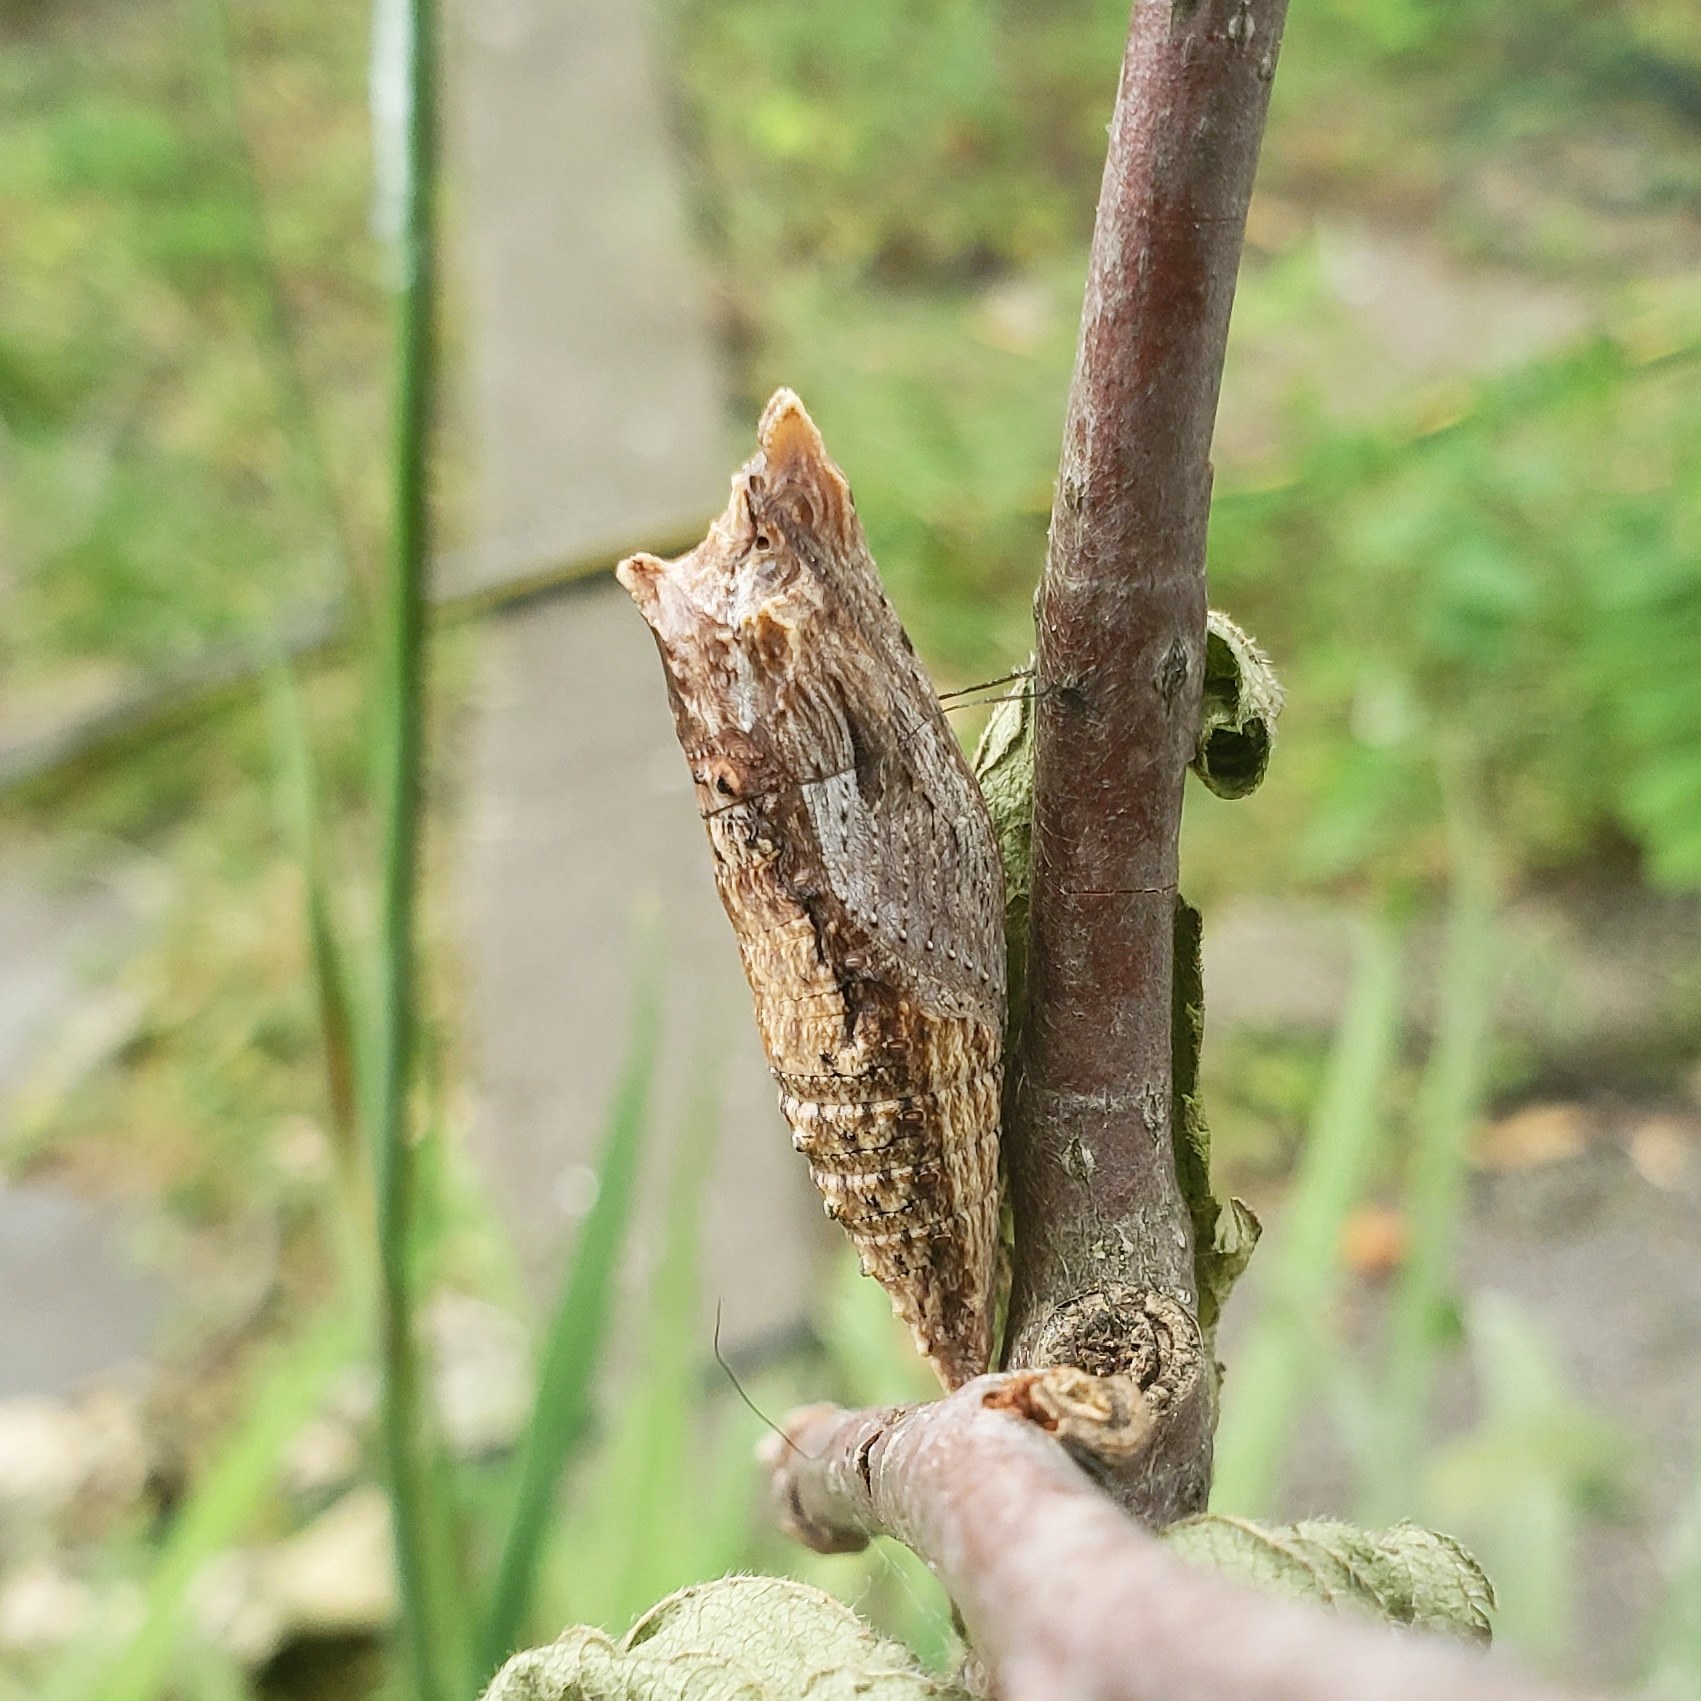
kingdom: Animalia
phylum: Arthropoda
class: Insecta
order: Lepidoptera
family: Papilionidae
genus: Papilio
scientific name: Papilio glaucus
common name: Tiger swallowtail
